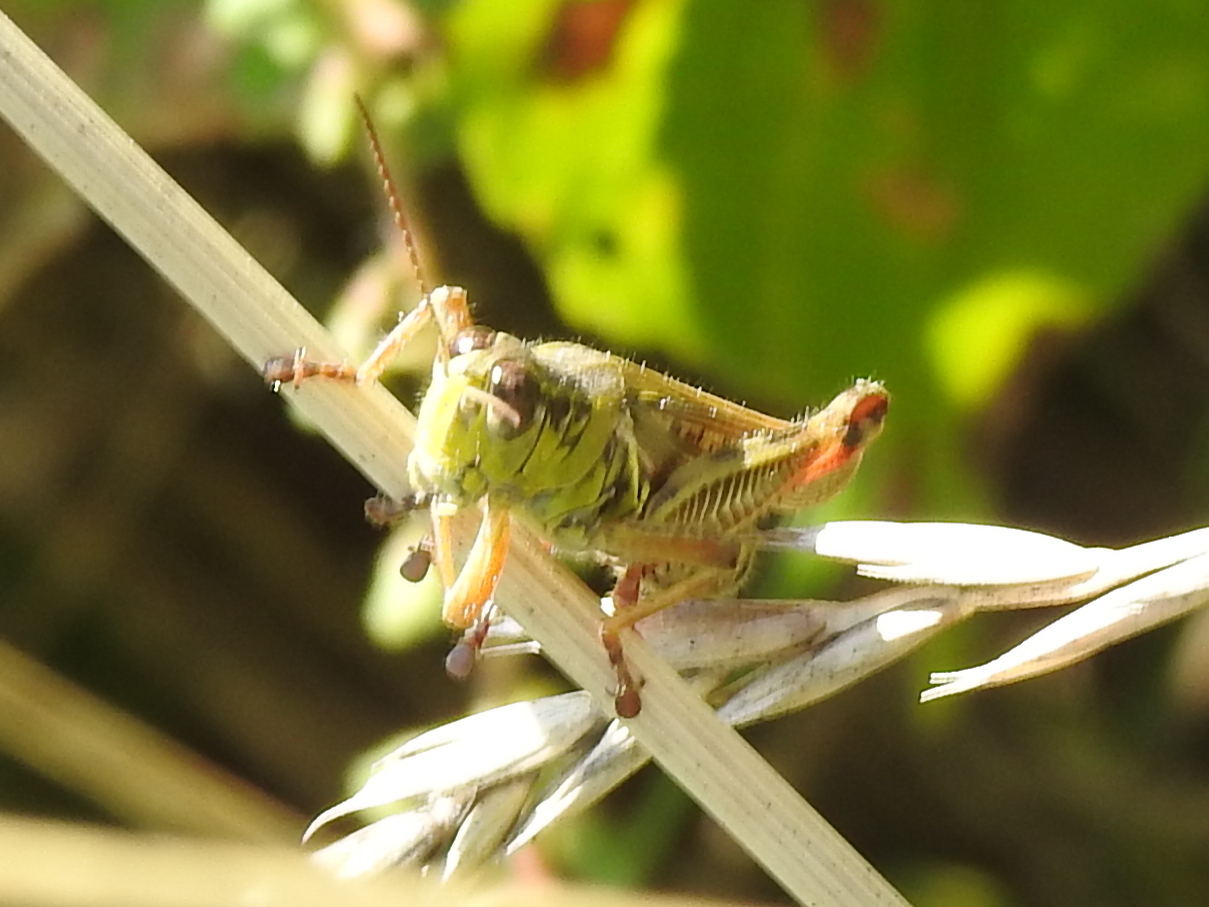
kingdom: Animalia
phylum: Arthropoda
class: Insecta
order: Orthoptera
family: Acrididae
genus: Melanoplus
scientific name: Melanoplus femurrubrum
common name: Red-legged grasshopper
